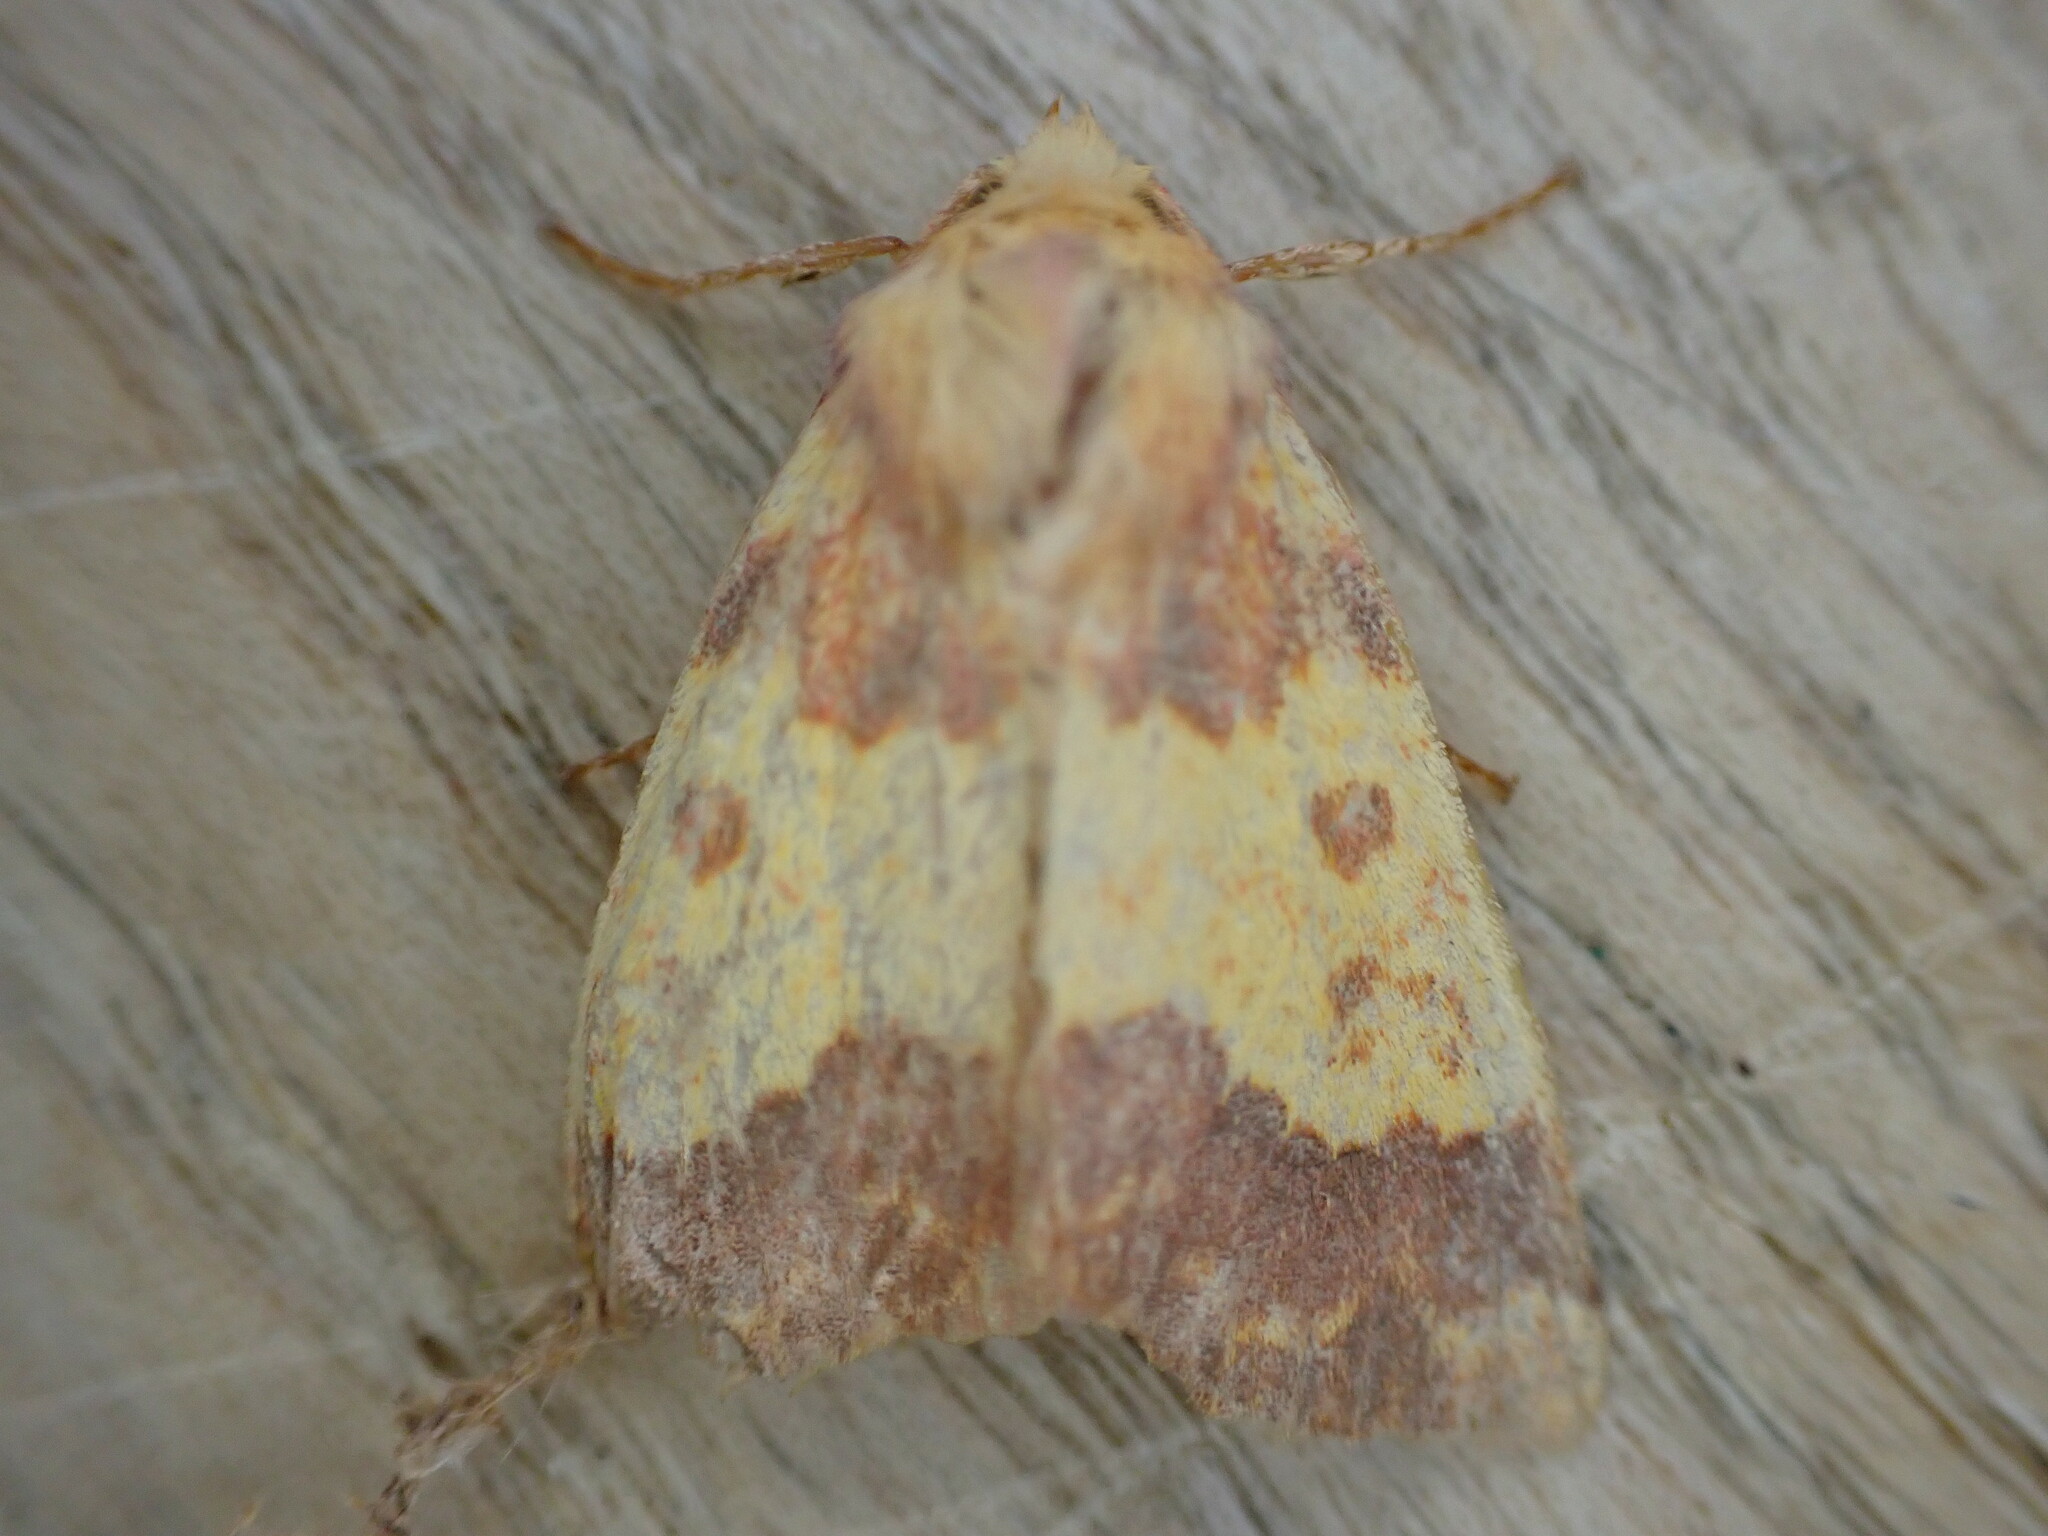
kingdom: Animalia
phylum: Arthropoda
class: Insecta
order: Lepidoptera
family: Noctuidae
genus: Tiliacea
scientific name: Tiliacea aurago
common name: Barred sallow
